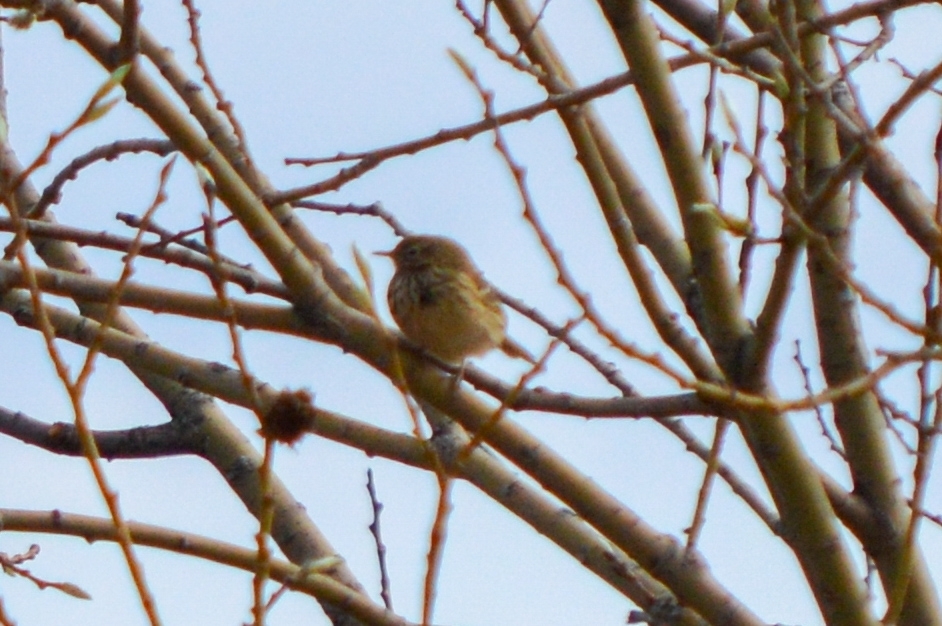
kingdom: Animalia
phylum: Chordata
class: Aves
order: Passeriformes
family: Motacillidae
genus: Anthus
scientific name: Anthus pratensis
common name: Meadow pipit
